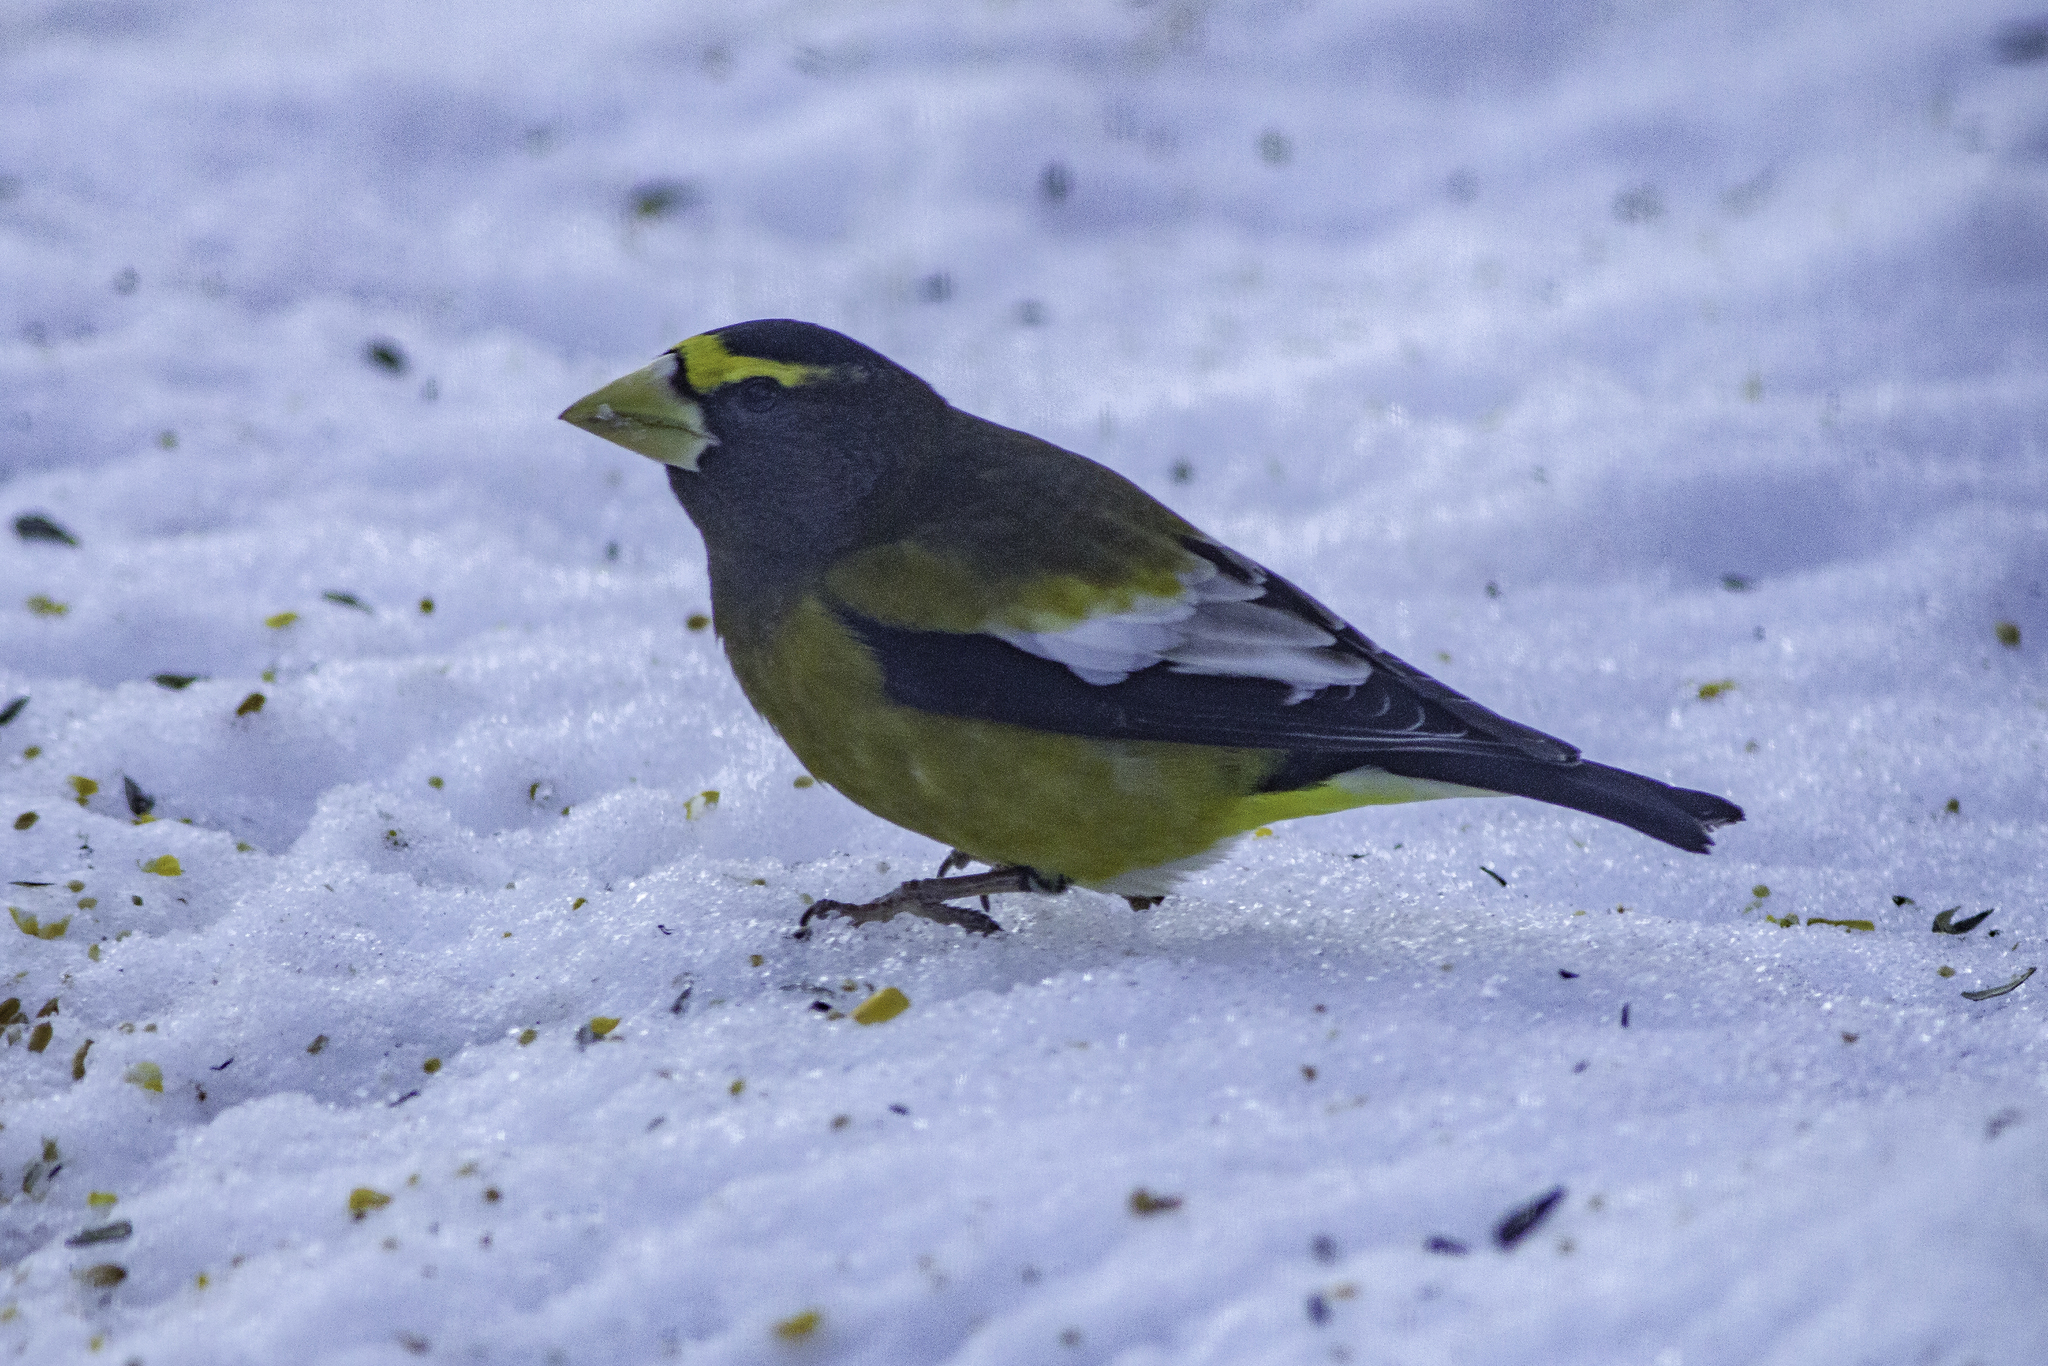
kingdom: Animalia
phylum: Chordata
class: Aves
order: Passeriformes
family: Fringillidae
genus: Hesperiphona
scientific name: Hesperiphona vespertina
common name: Evening grosbeak
